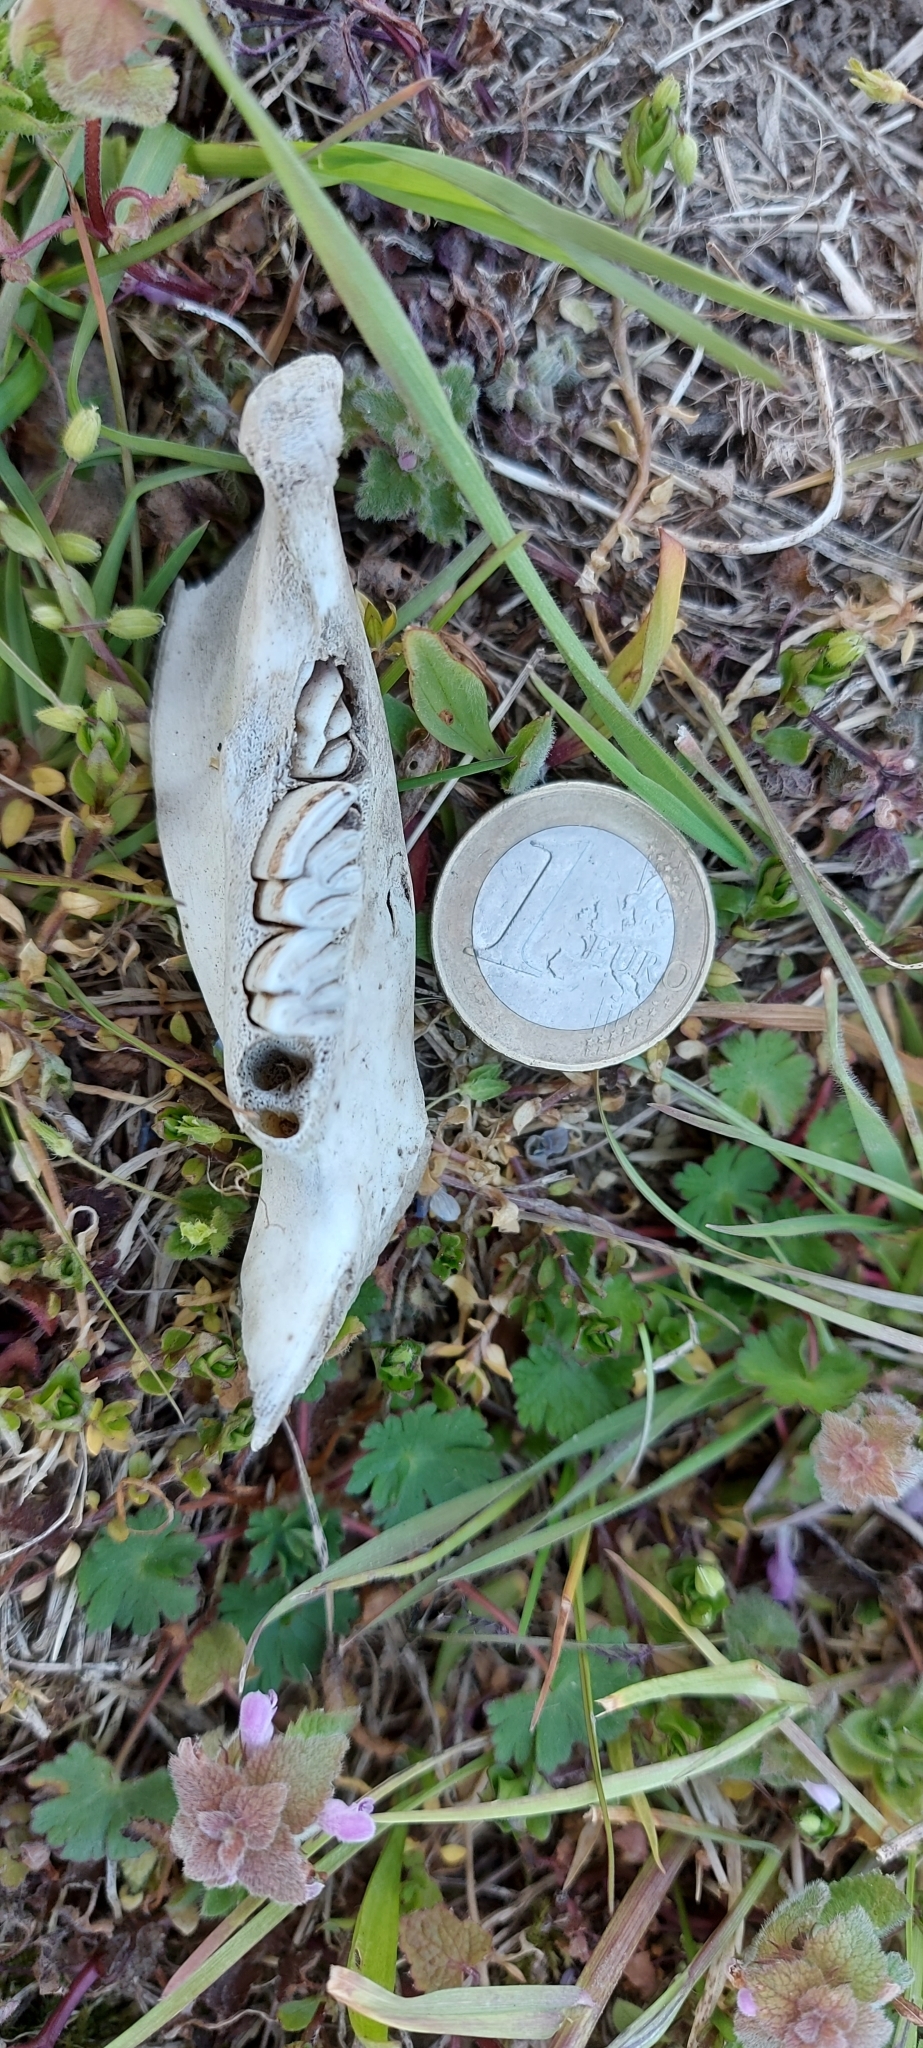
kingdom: Animalia
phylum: Chordata
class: Mammalia
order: Rodentia
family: Myocastoridae
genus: Myocastor
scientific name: Myocastor coypus
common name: Coypu
